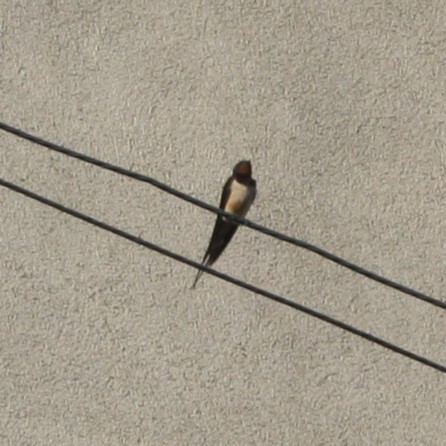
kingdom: Animalia
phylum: Chordata
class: Aves
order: Passeriformes
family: Hirundinidae
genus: Hirundo
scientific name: Hirundo rustica
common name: Barn swallow
